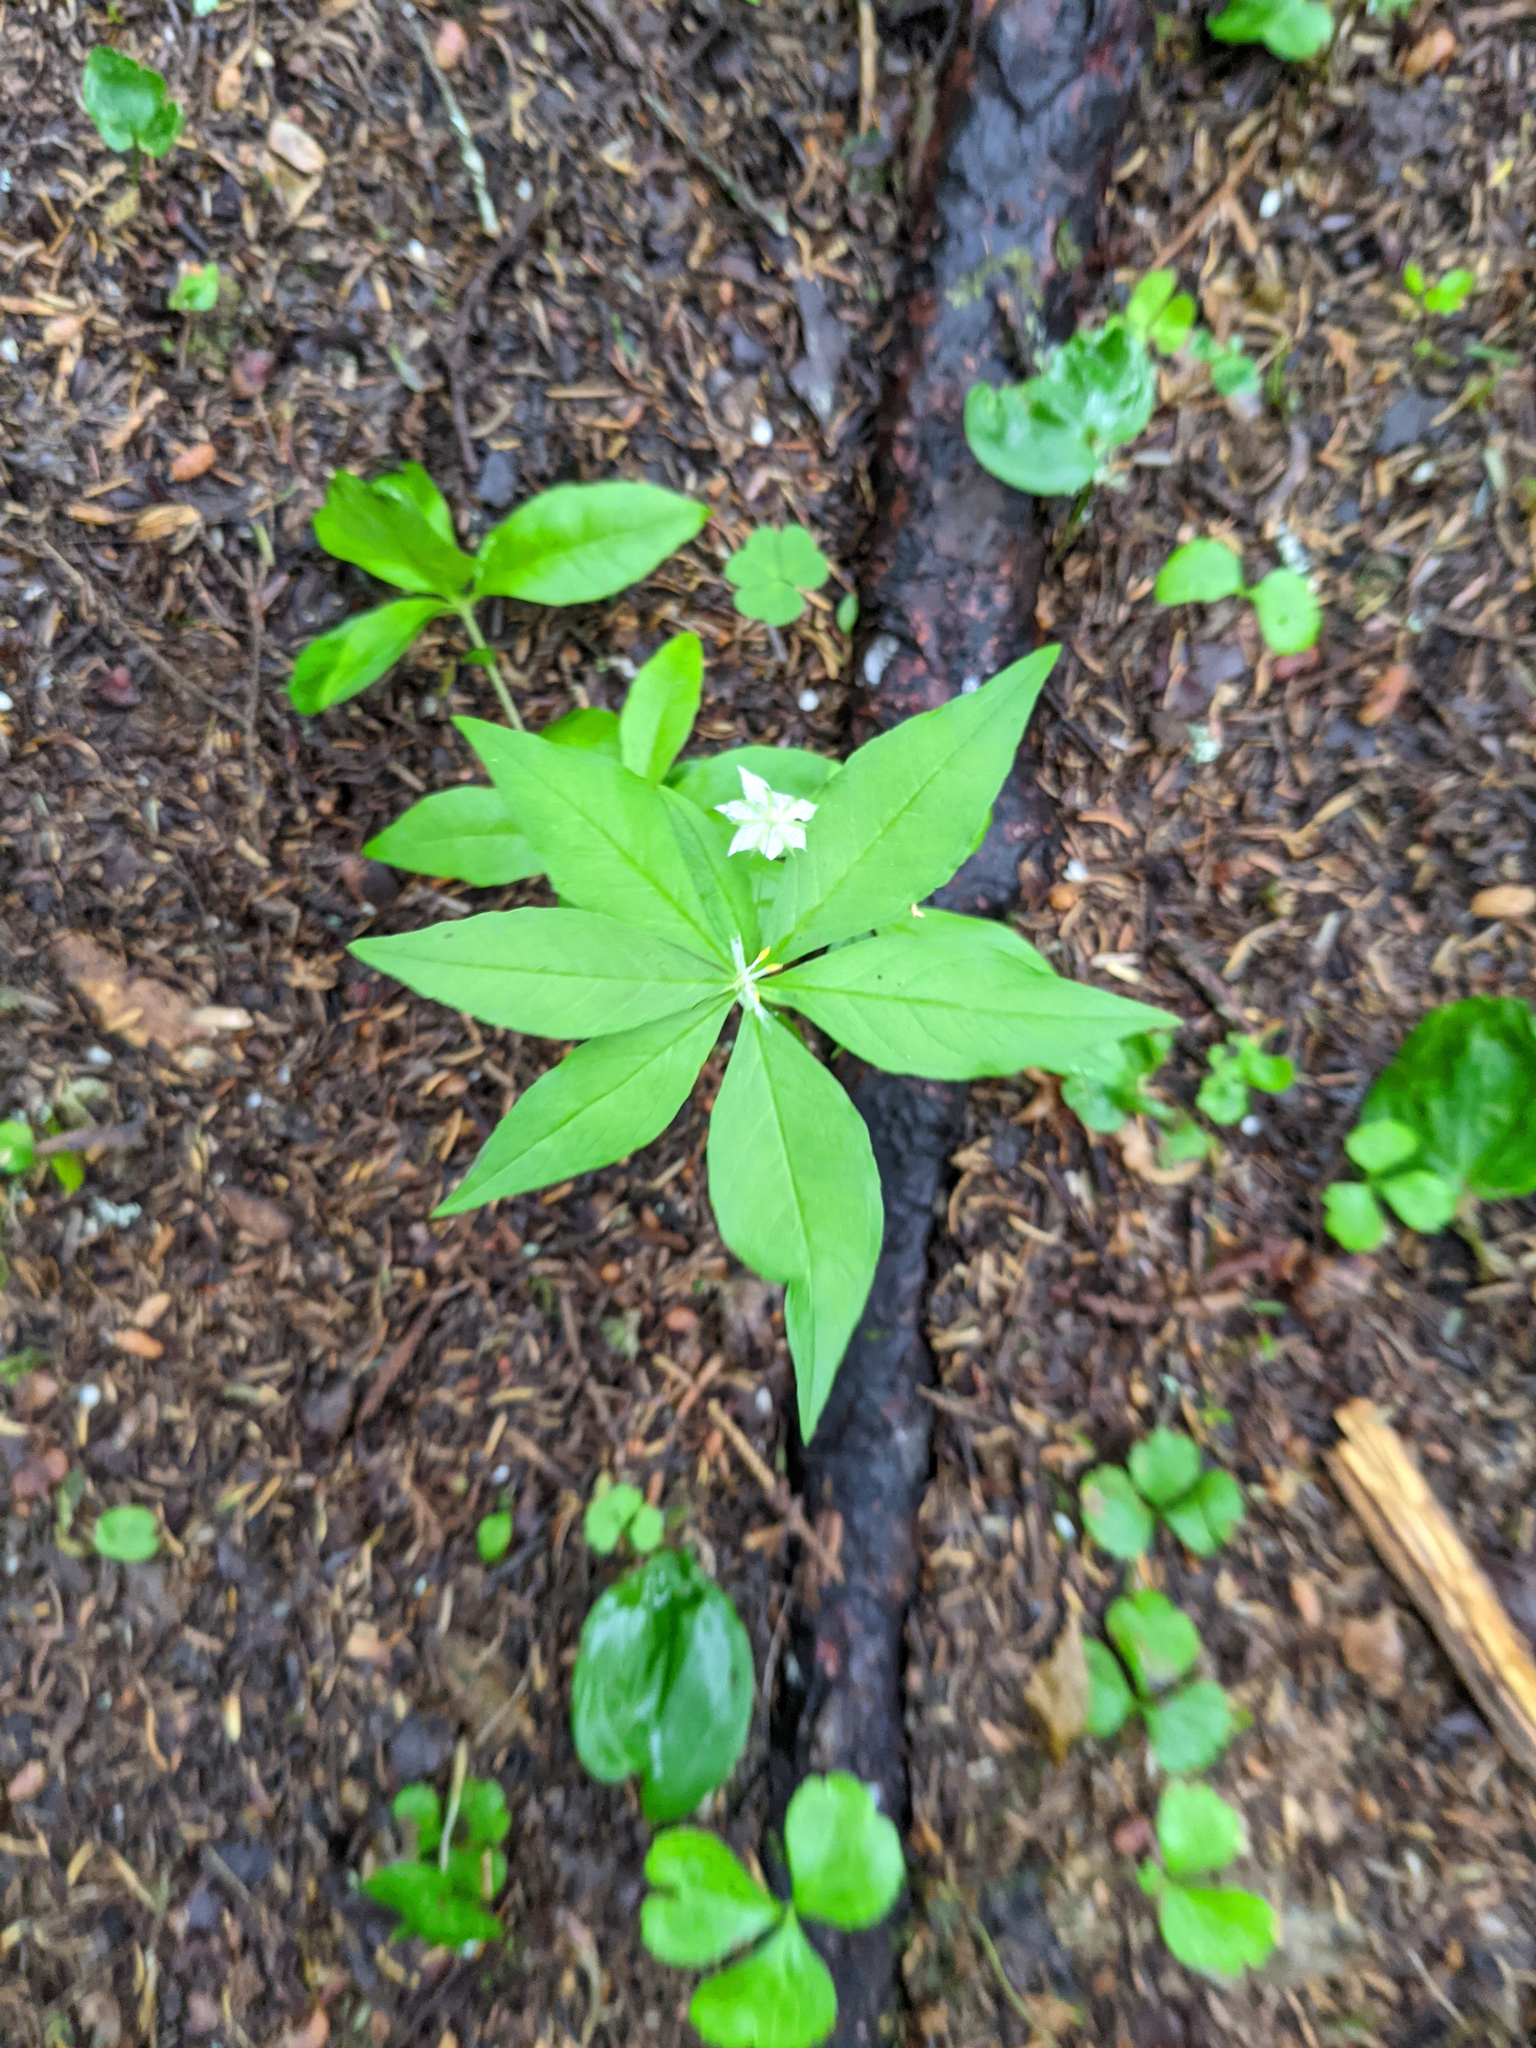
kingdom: Plantae
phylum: Tracheophyta
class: Magnoliopsida
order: Ericales
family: Primulaceae
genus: Lysimachia
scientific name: Lysimachia borealis
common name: American starflower
